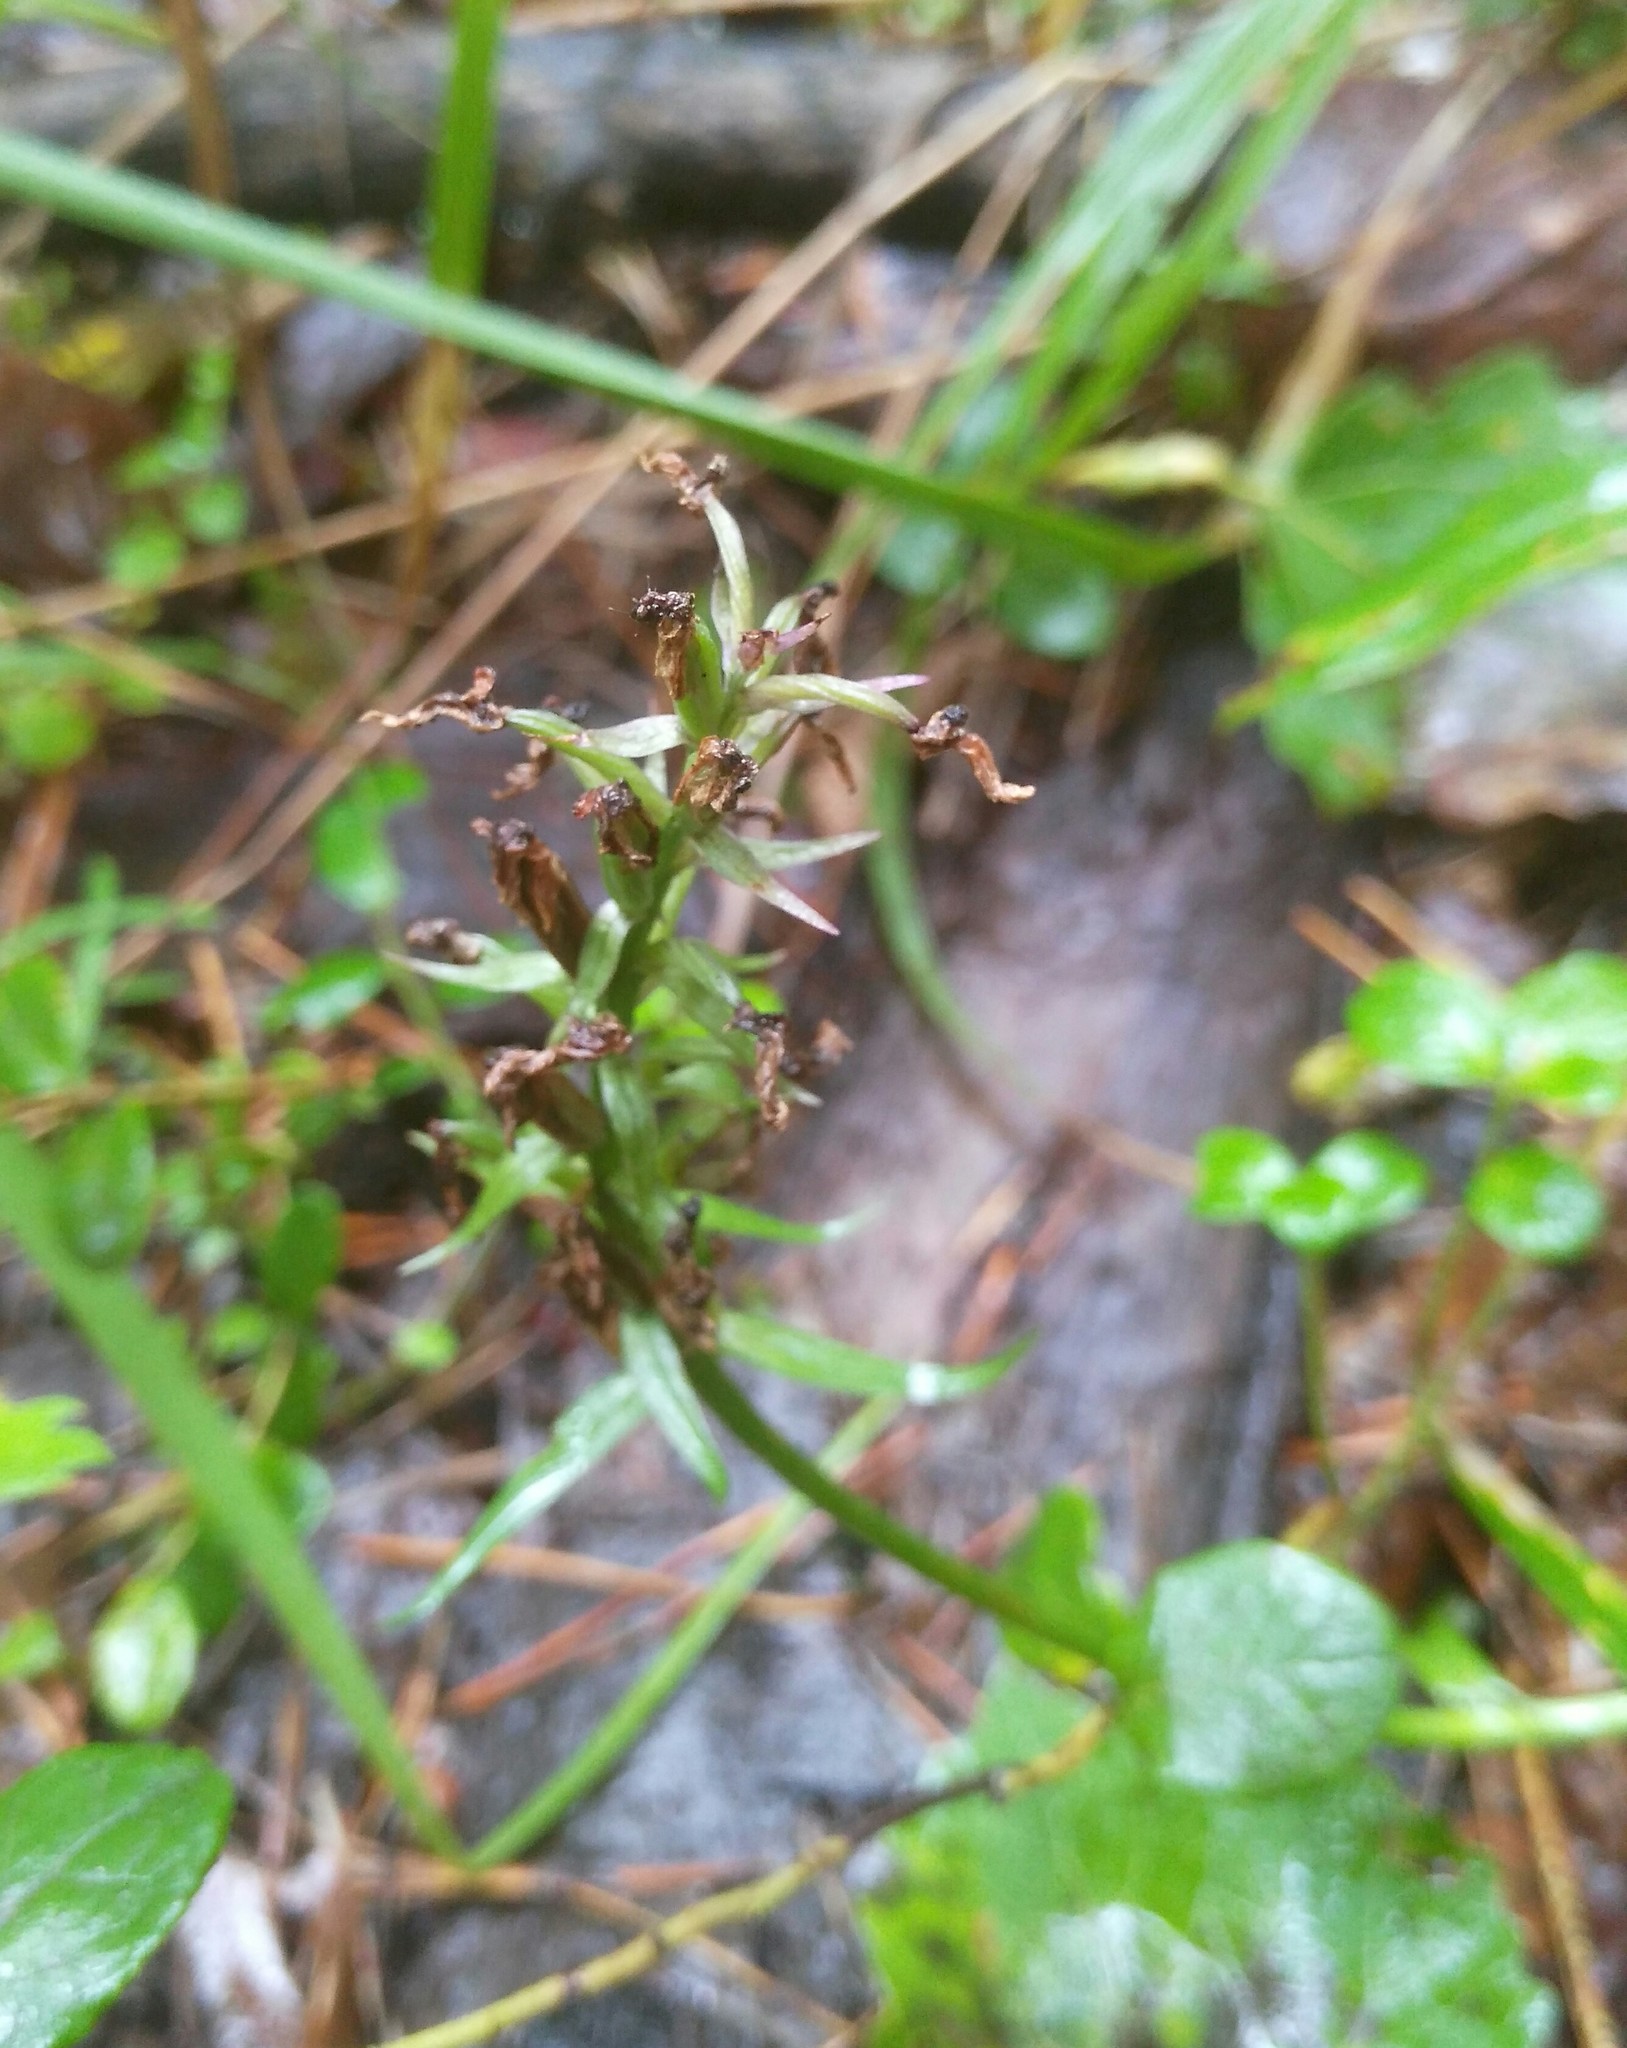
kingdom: Plantae
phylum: Tracheophyta
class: Liliopsida
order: Asparagales
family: Orchidaceae
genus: Dactylorhiza
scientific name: Dactylorhiza maculata
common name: Heath spotted-orchid
